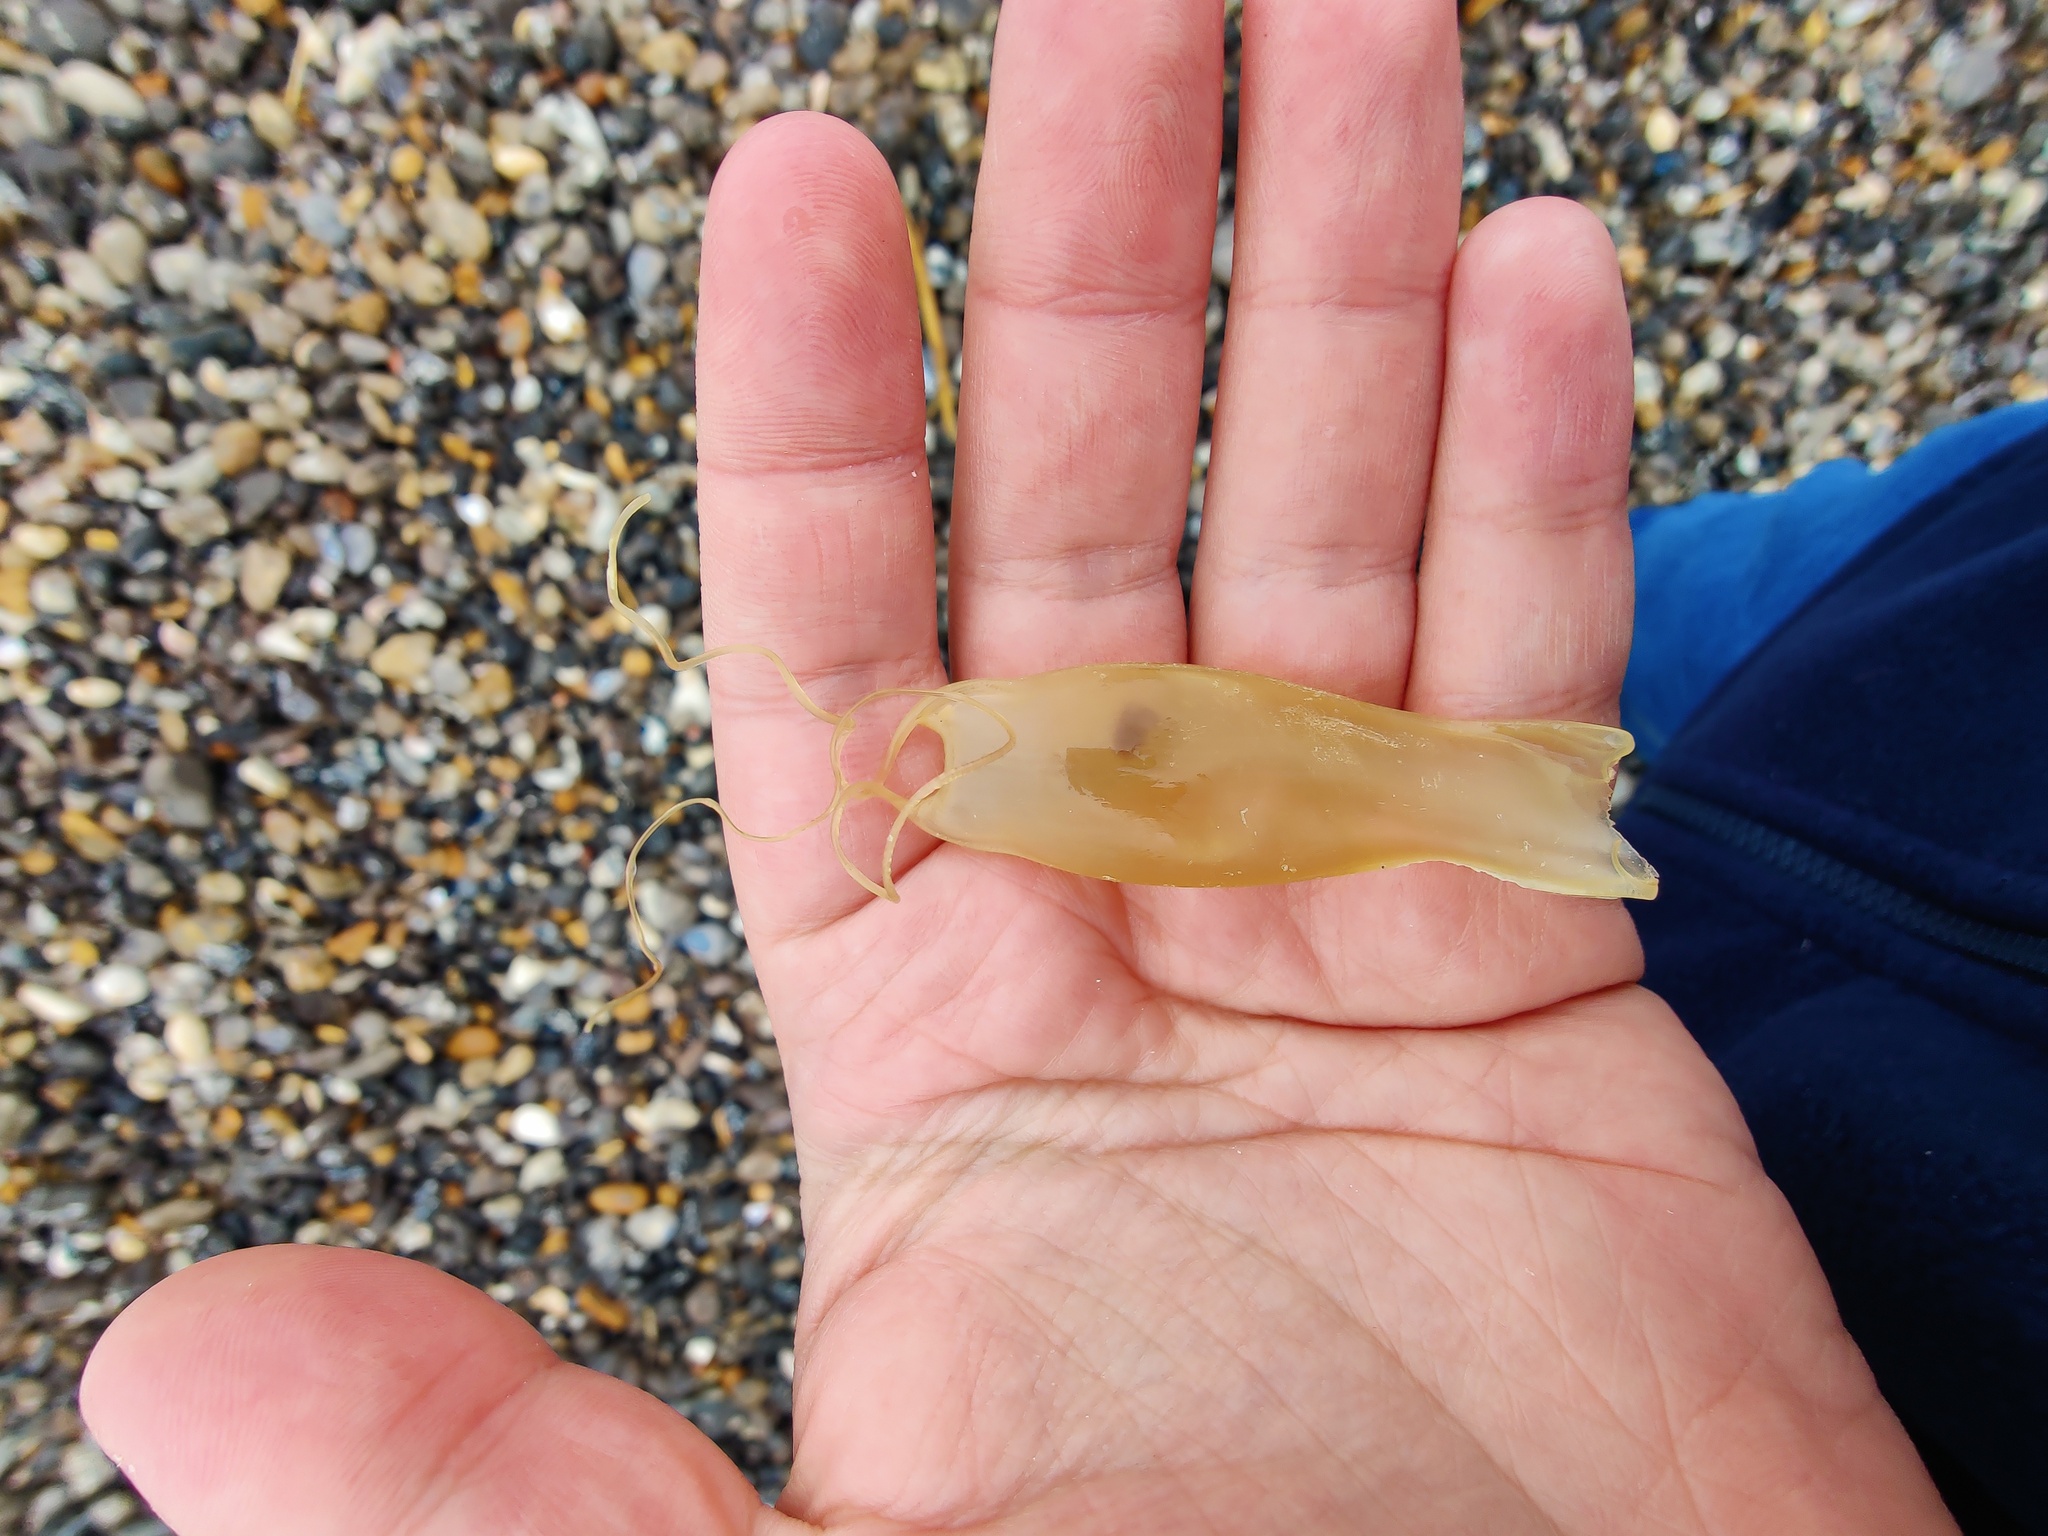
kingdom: Animalia
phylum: Chordata
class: Elasmobranchii
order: Carcharhiniformes
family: Scyliorhinidae
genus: Scyliorhinus
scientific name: Scyliorhinus canicula
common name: Lesser spotted dogfish
